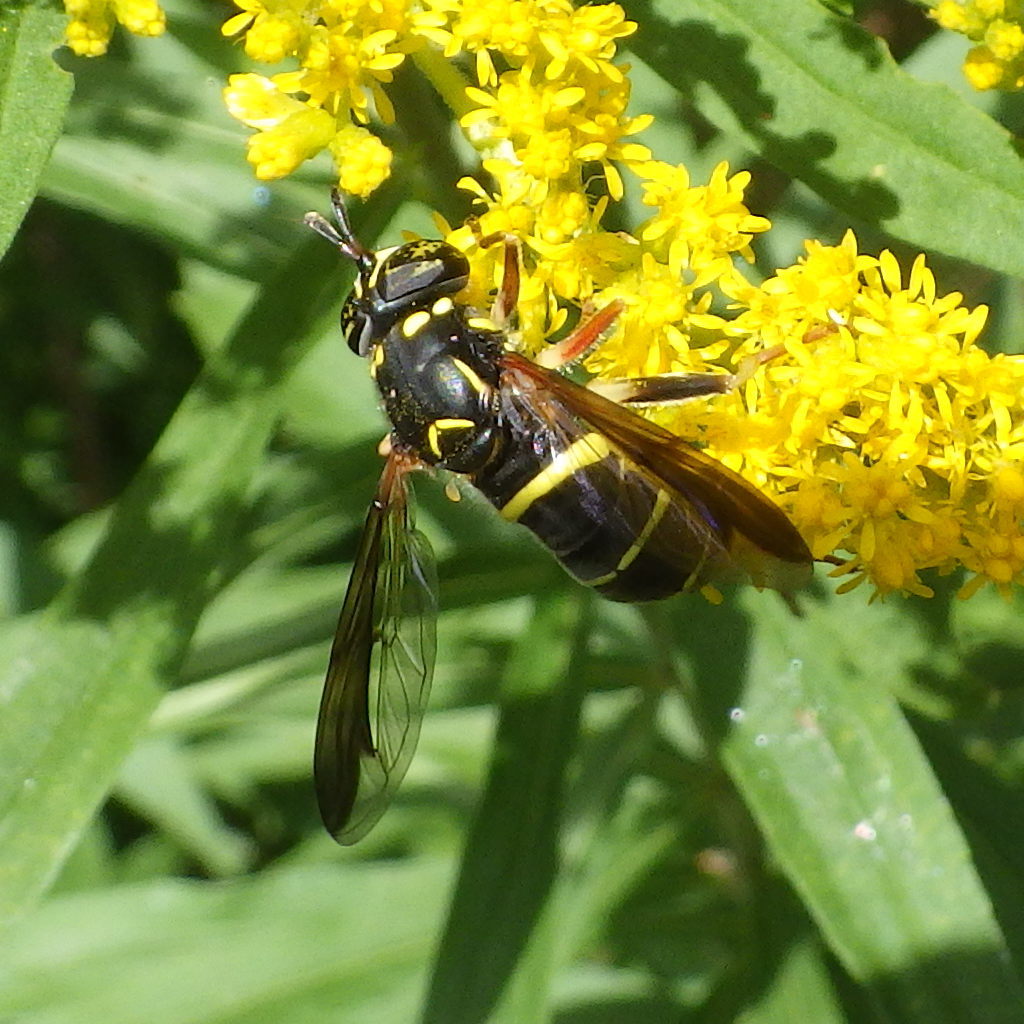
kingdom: Animalia
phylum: Arthropoda
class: Insecta
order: Diptera
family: Syrphidae
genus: Spilomyia
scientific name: Spilomyia sayi
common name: Four-lined hornet fly
